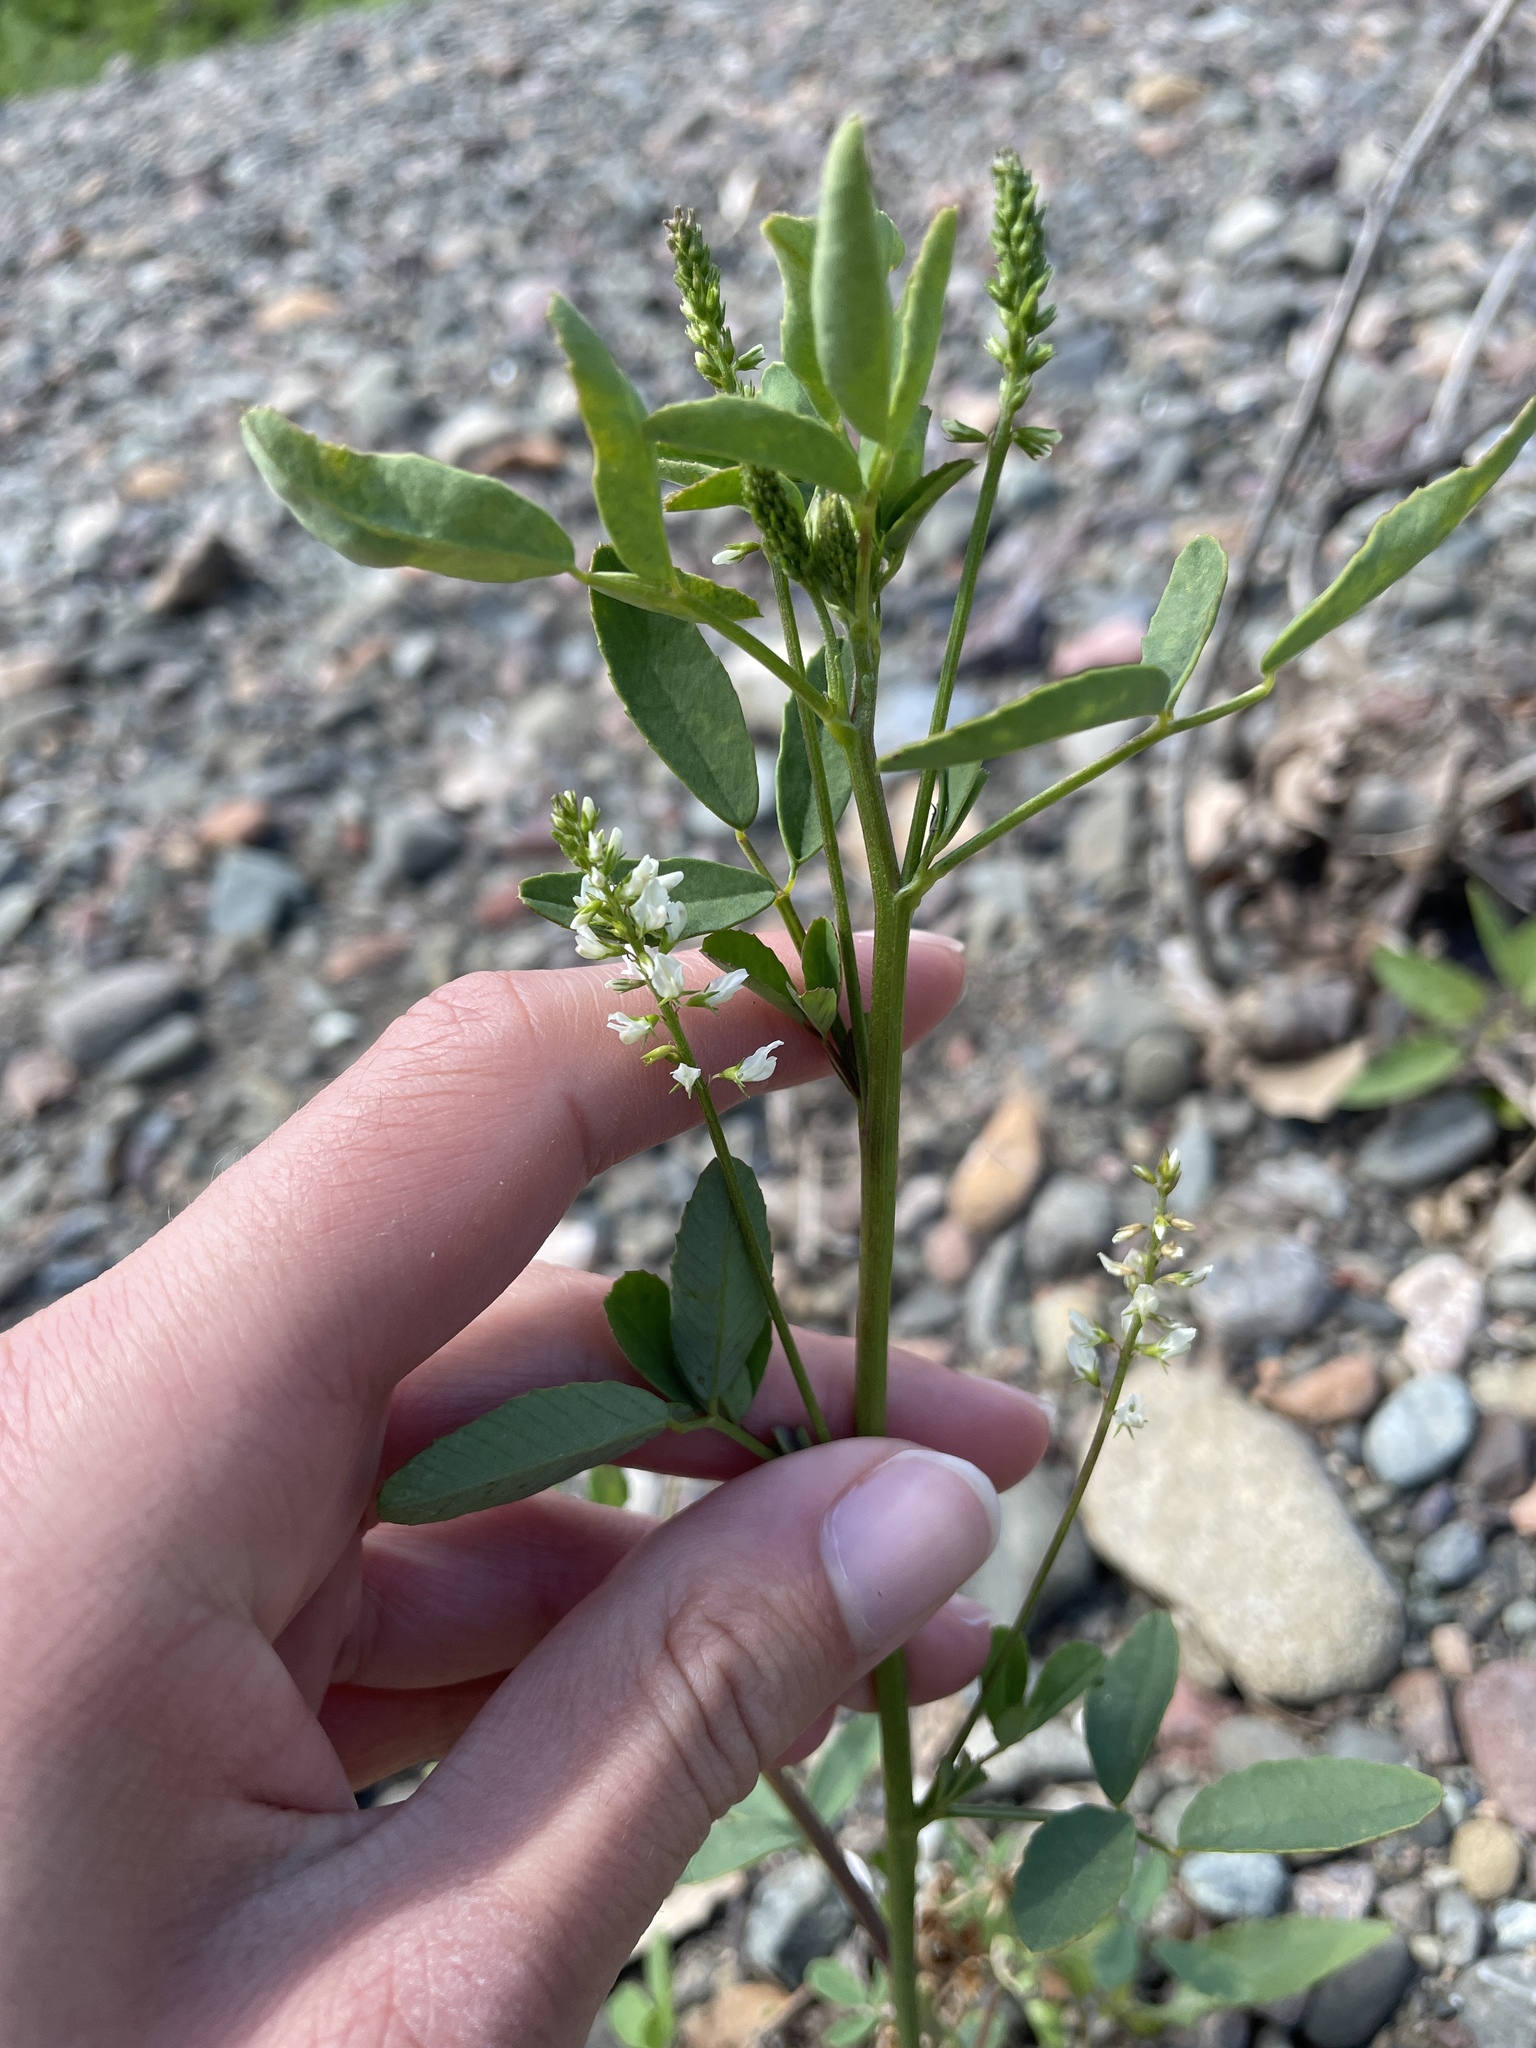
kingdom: Plantae
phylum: Tracheophyta
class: Magnoliopsida
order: Fabales
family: Fabaceae
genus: Melilotus
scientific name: Melilotus albus
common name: White melilot
